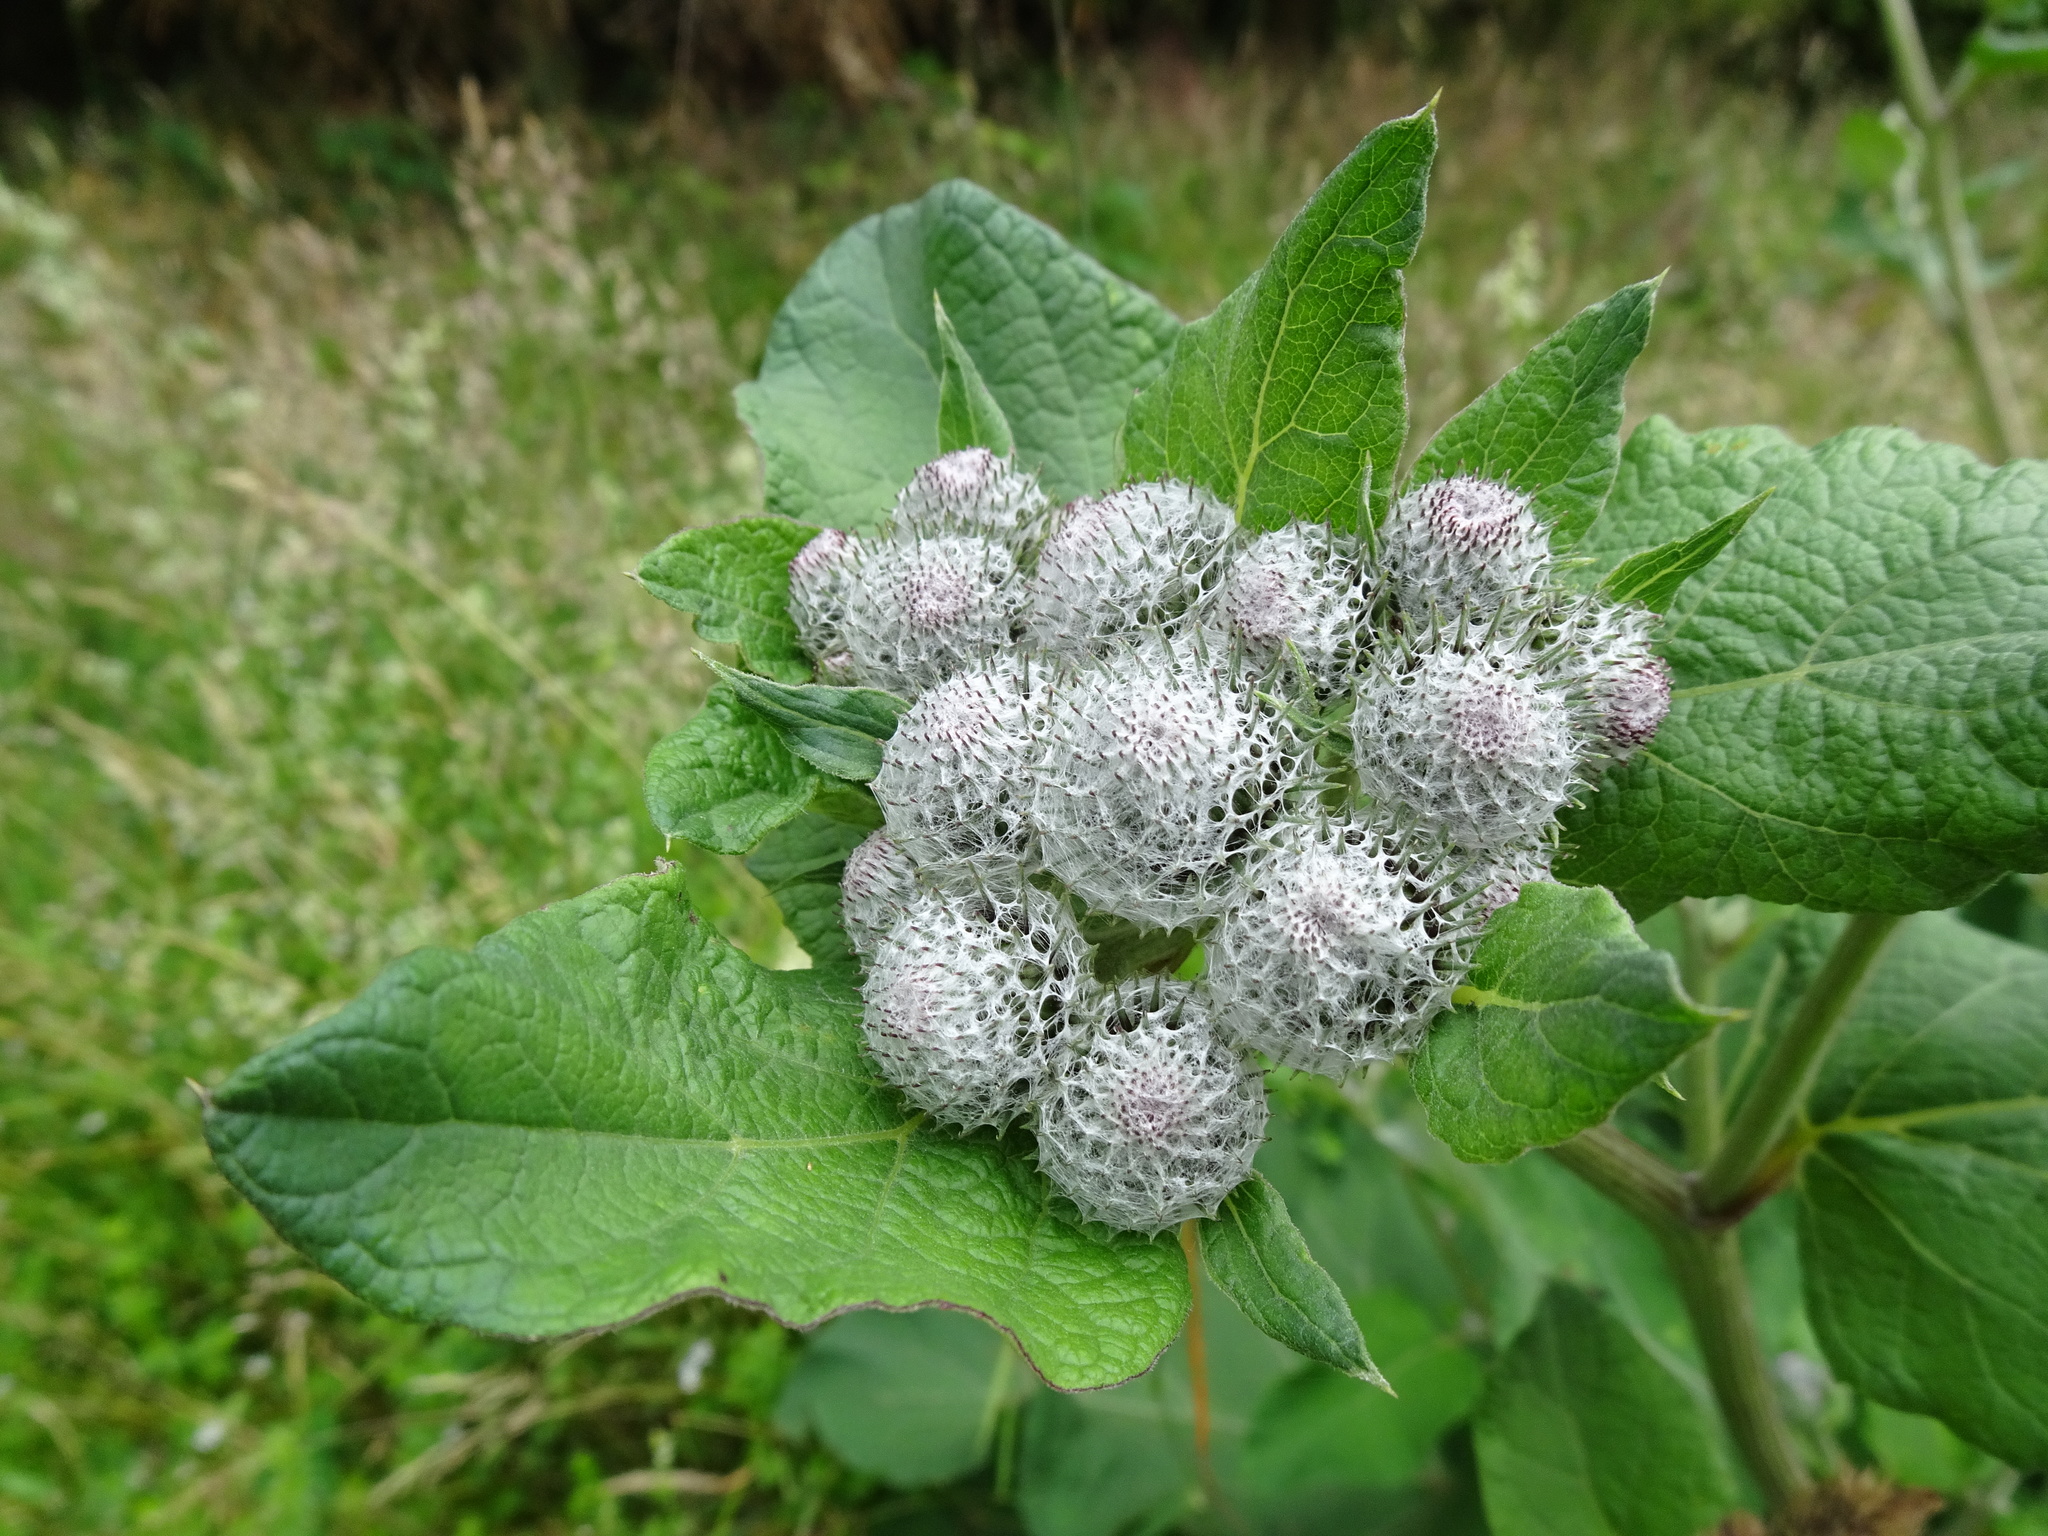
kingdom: Plantae
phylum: Tracheophyta
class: Magnoliopsida
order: Asterales
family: Asteraceae
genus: Arctium
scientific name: Arctium tomentosum
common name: Woolly burdock
